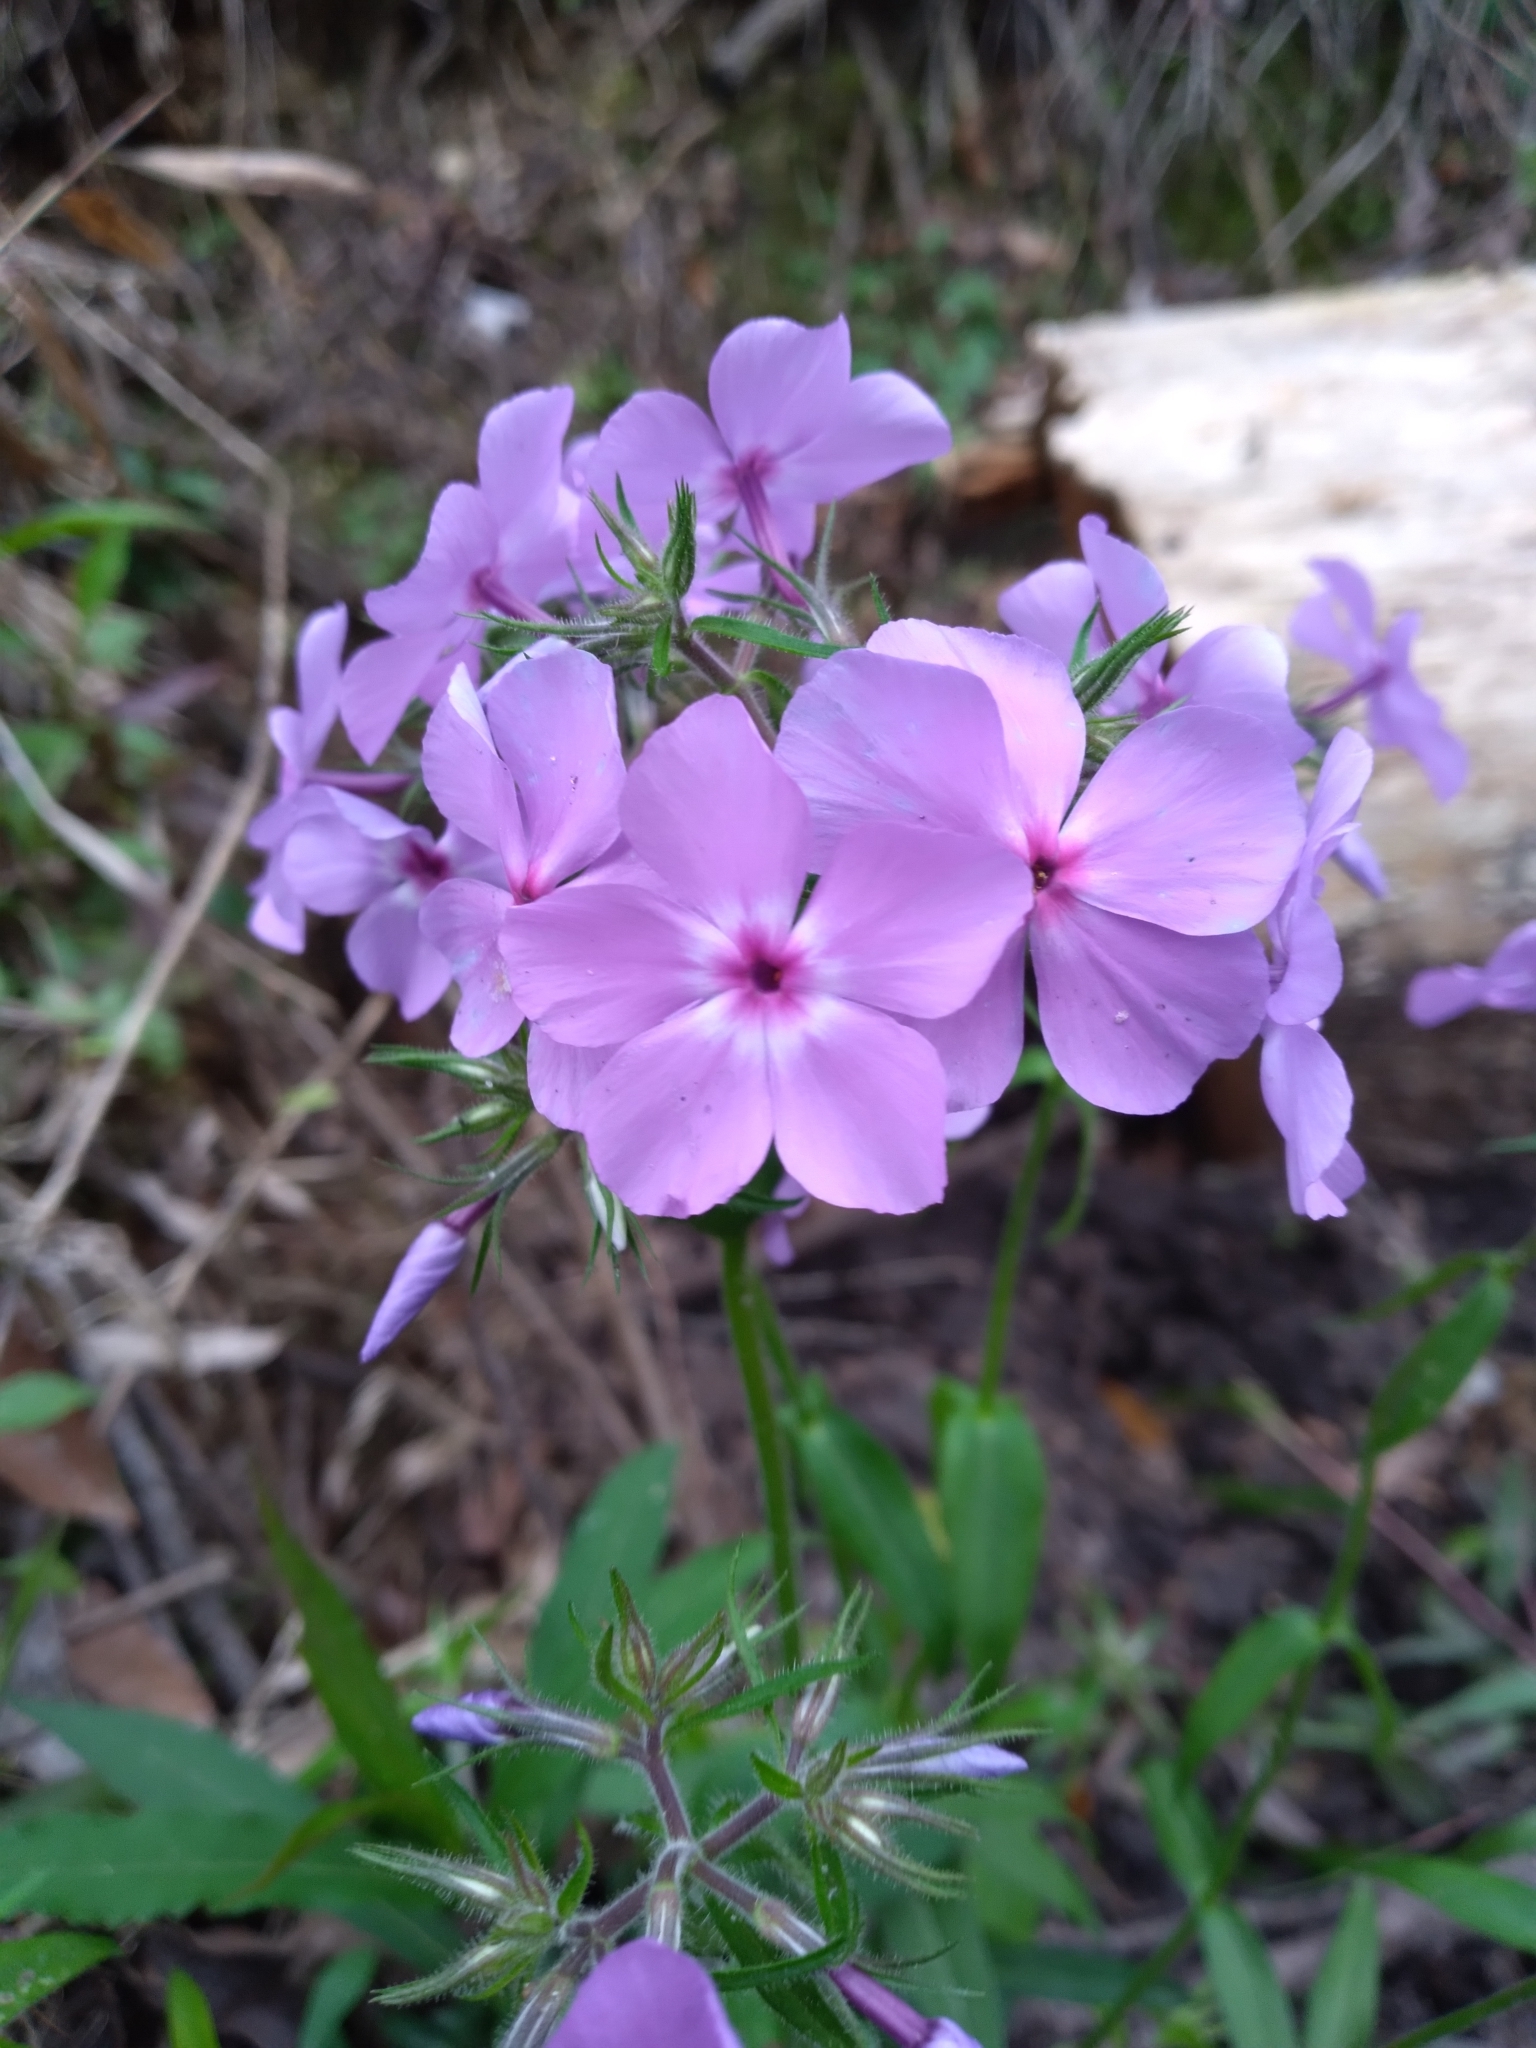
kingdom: Plantae
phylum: Tracheophyta
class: Magnoliopsida
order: Ericales
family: Polemoniaceae
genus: Phlox
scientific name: Phlox divaricata
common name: Blue phlox
